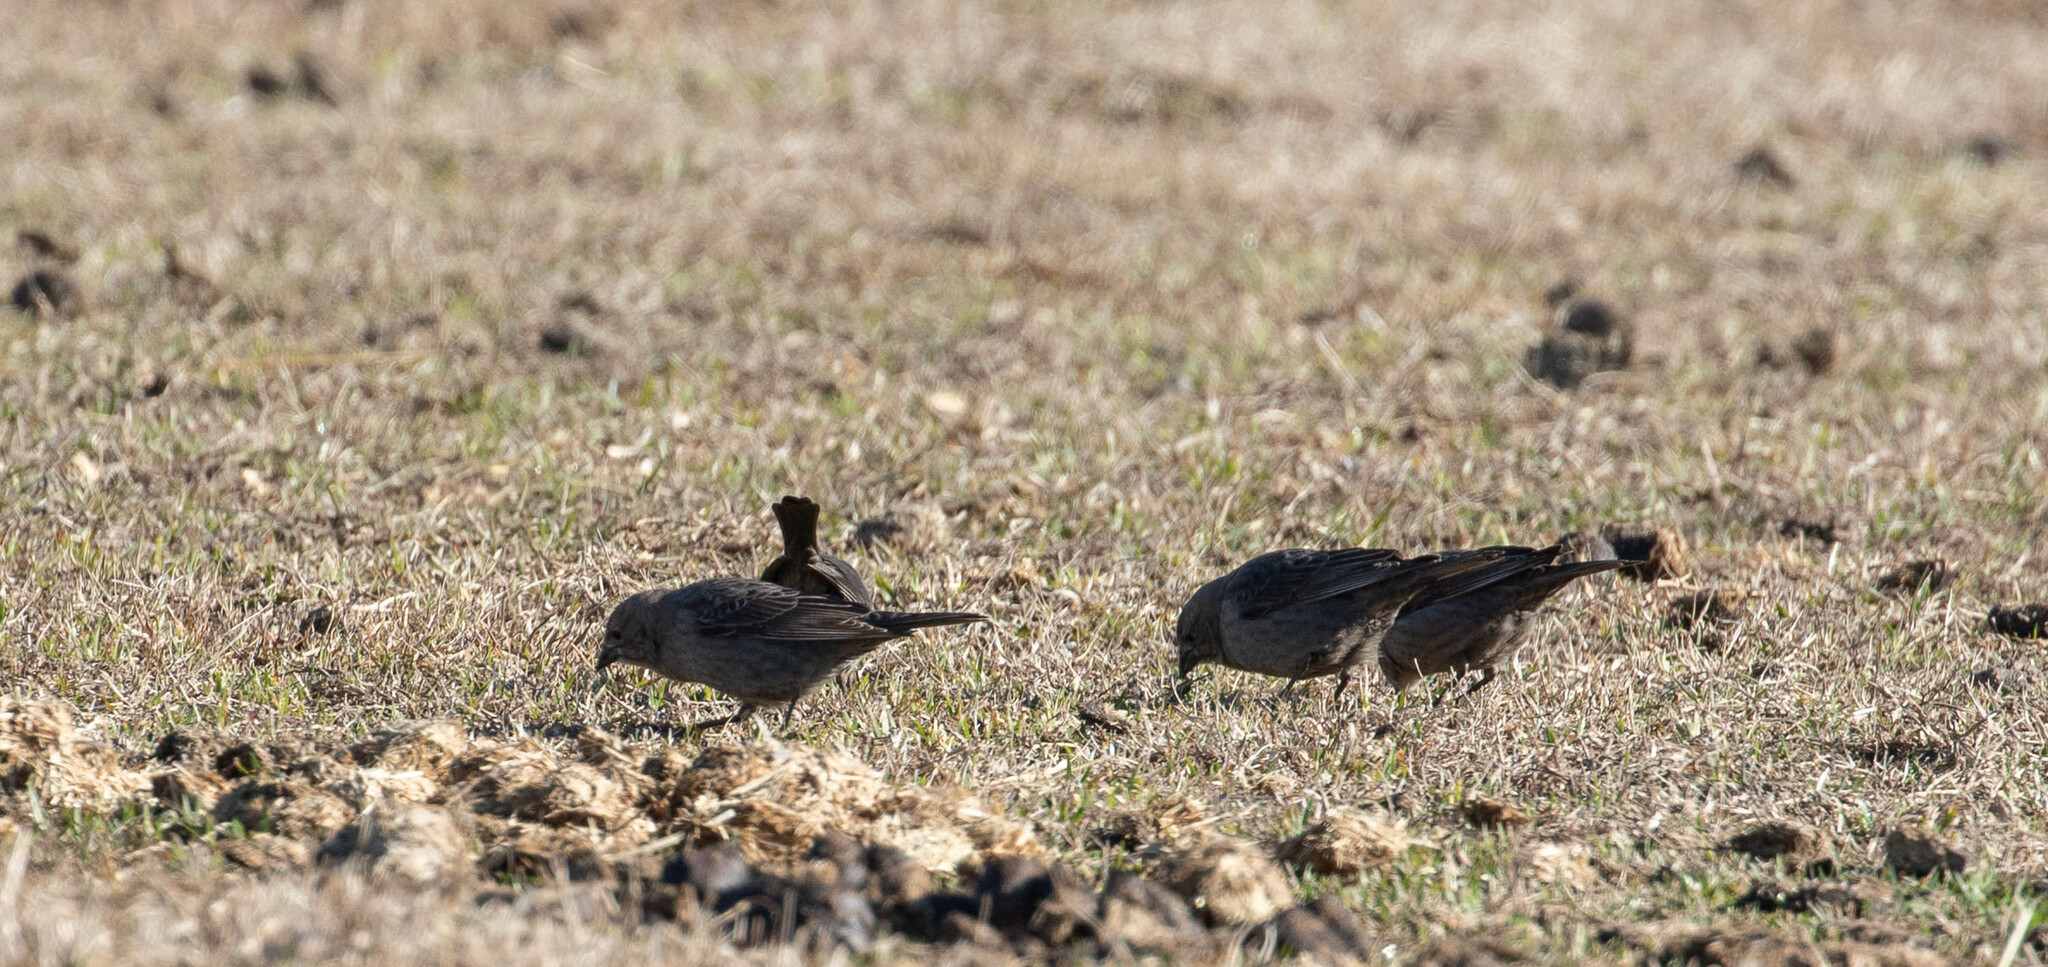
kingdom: Animalia
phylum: Chordata
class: Aves
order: Passeriformes
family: Icteridae
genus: Molothrus
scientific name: Molothrus ater
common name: Brown-headed cowbird
